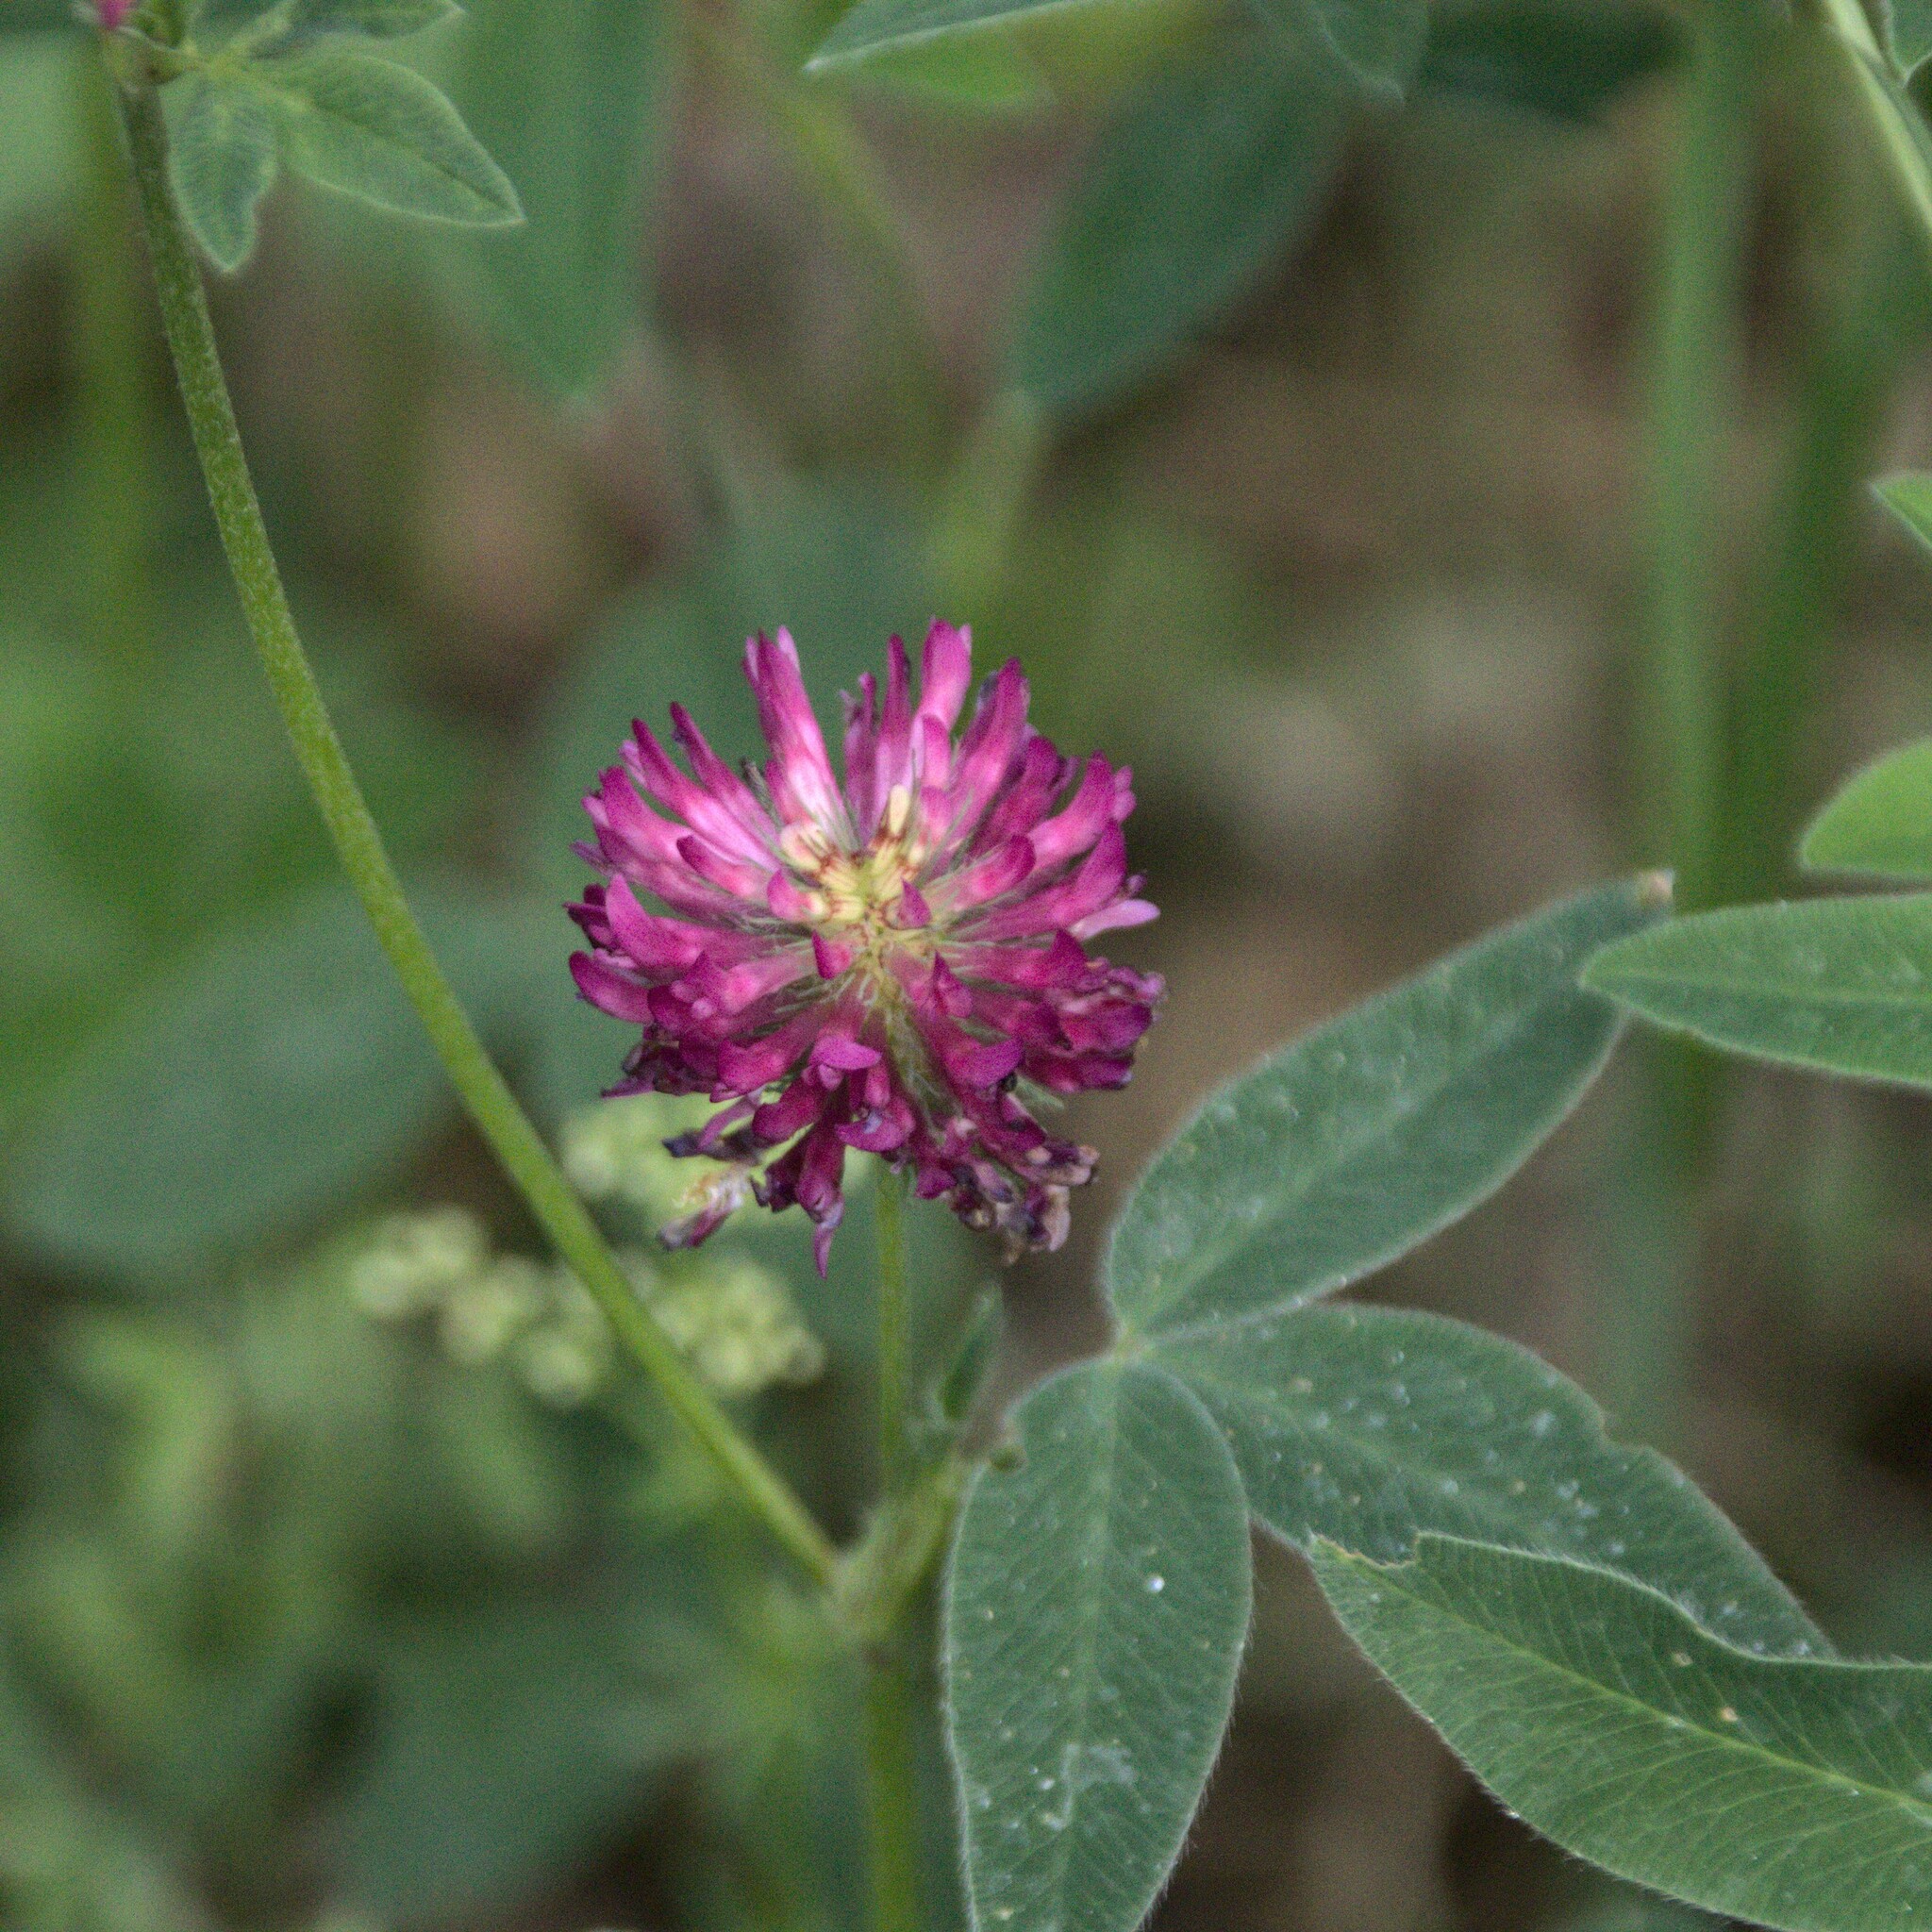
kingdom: Plantae
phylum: Tracheophyta
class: Magnoliopsida
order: Fabales
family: Fabaceae
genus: Trifolium
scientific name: Trifolium medium
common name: Zigzag clover
